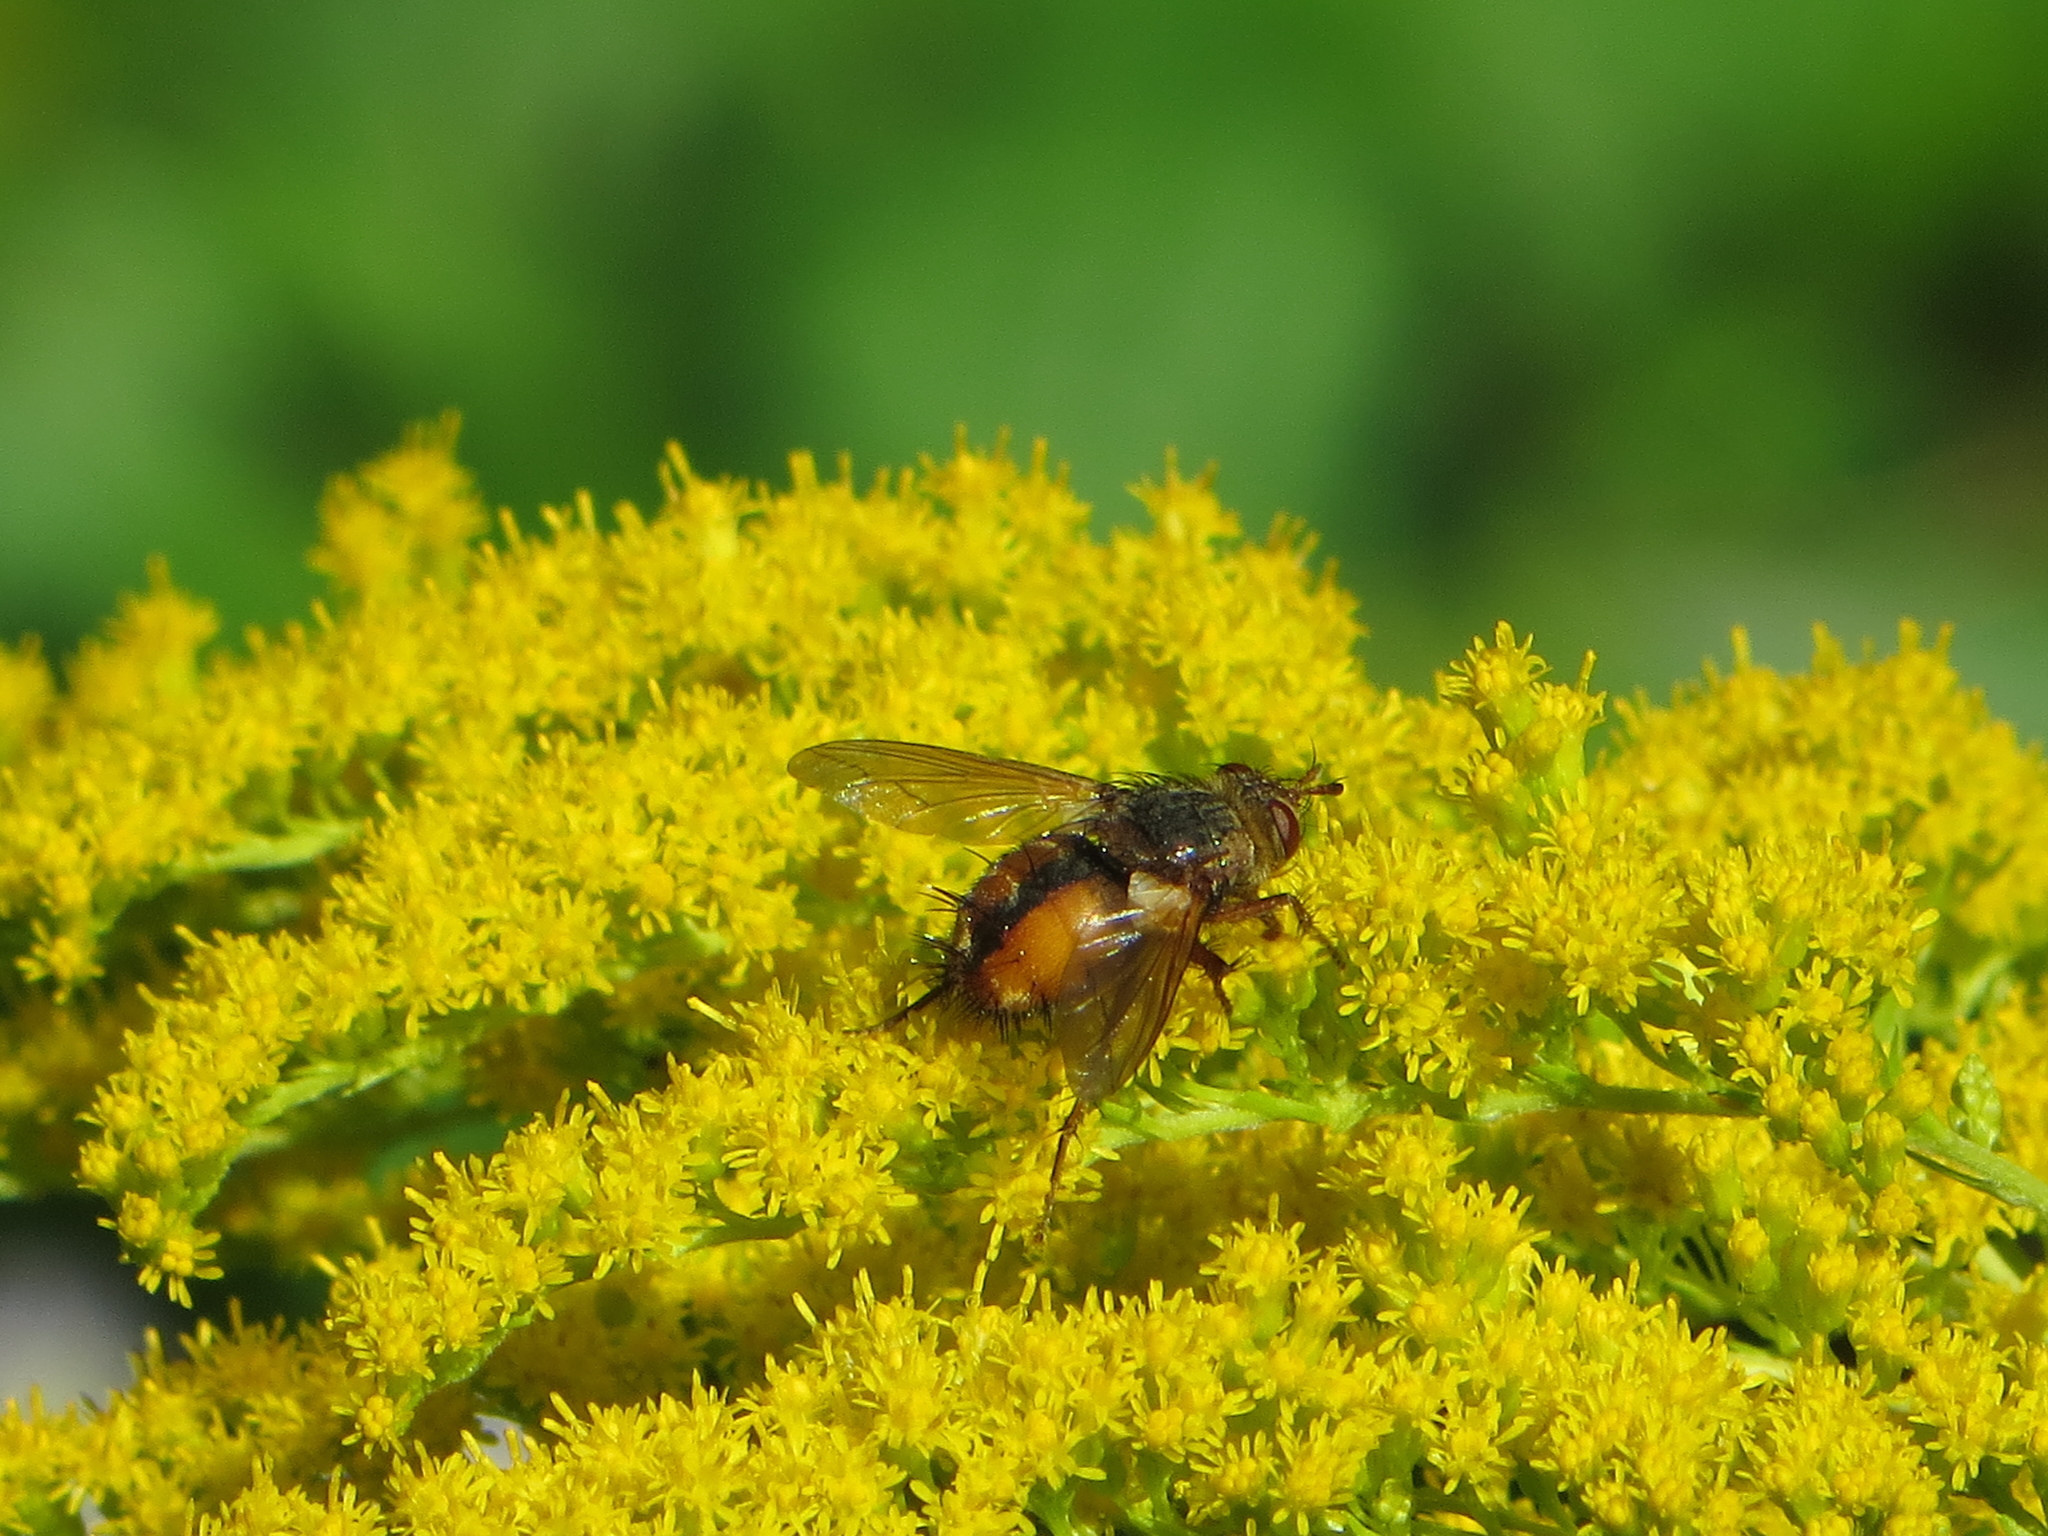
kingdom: Animalia
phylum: Arthropoda
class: Insecta
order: Diptera
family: Tachinidae
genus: Tachina
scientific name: Tachina fera
